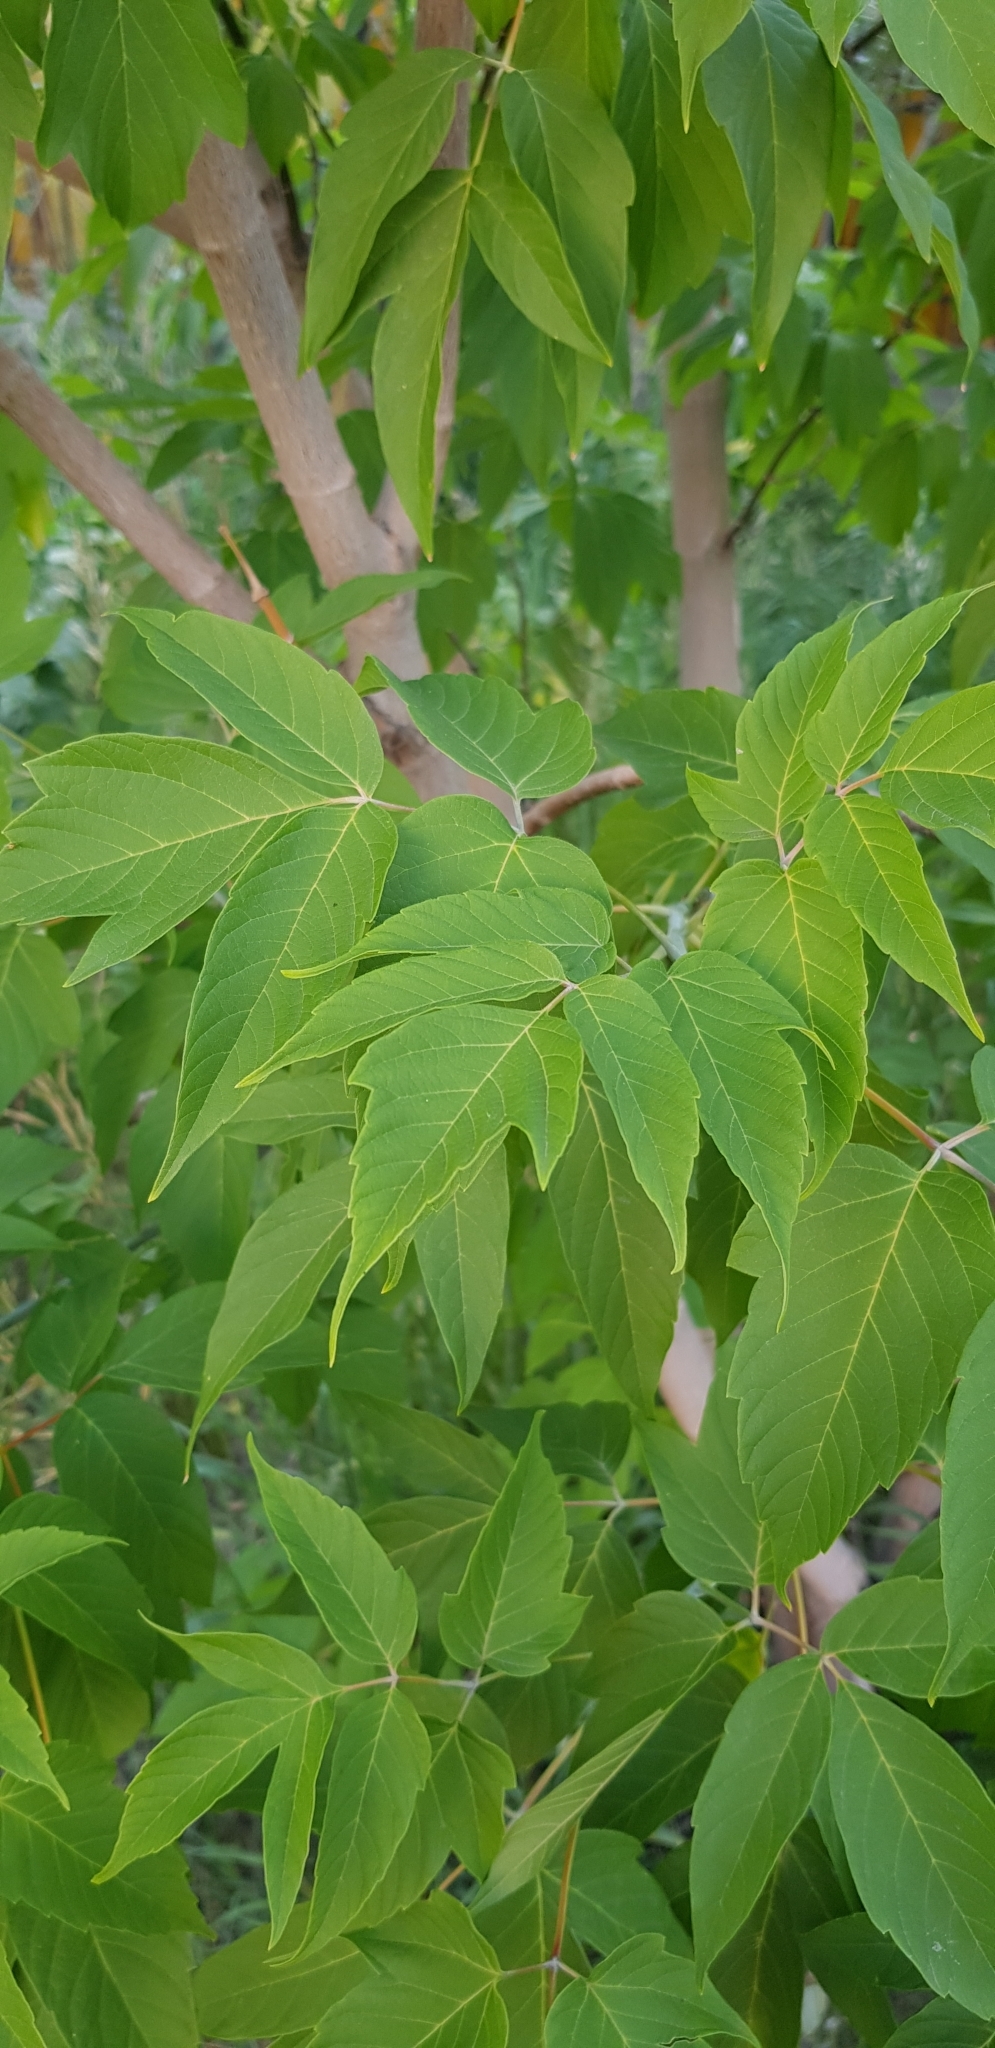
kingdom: Plantae
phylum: Tracheophyta
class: Magnoliopsida
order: Sapindales
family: Sapindaceae
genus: Acer
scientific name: Acer negundo
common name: Ashleaf maple
